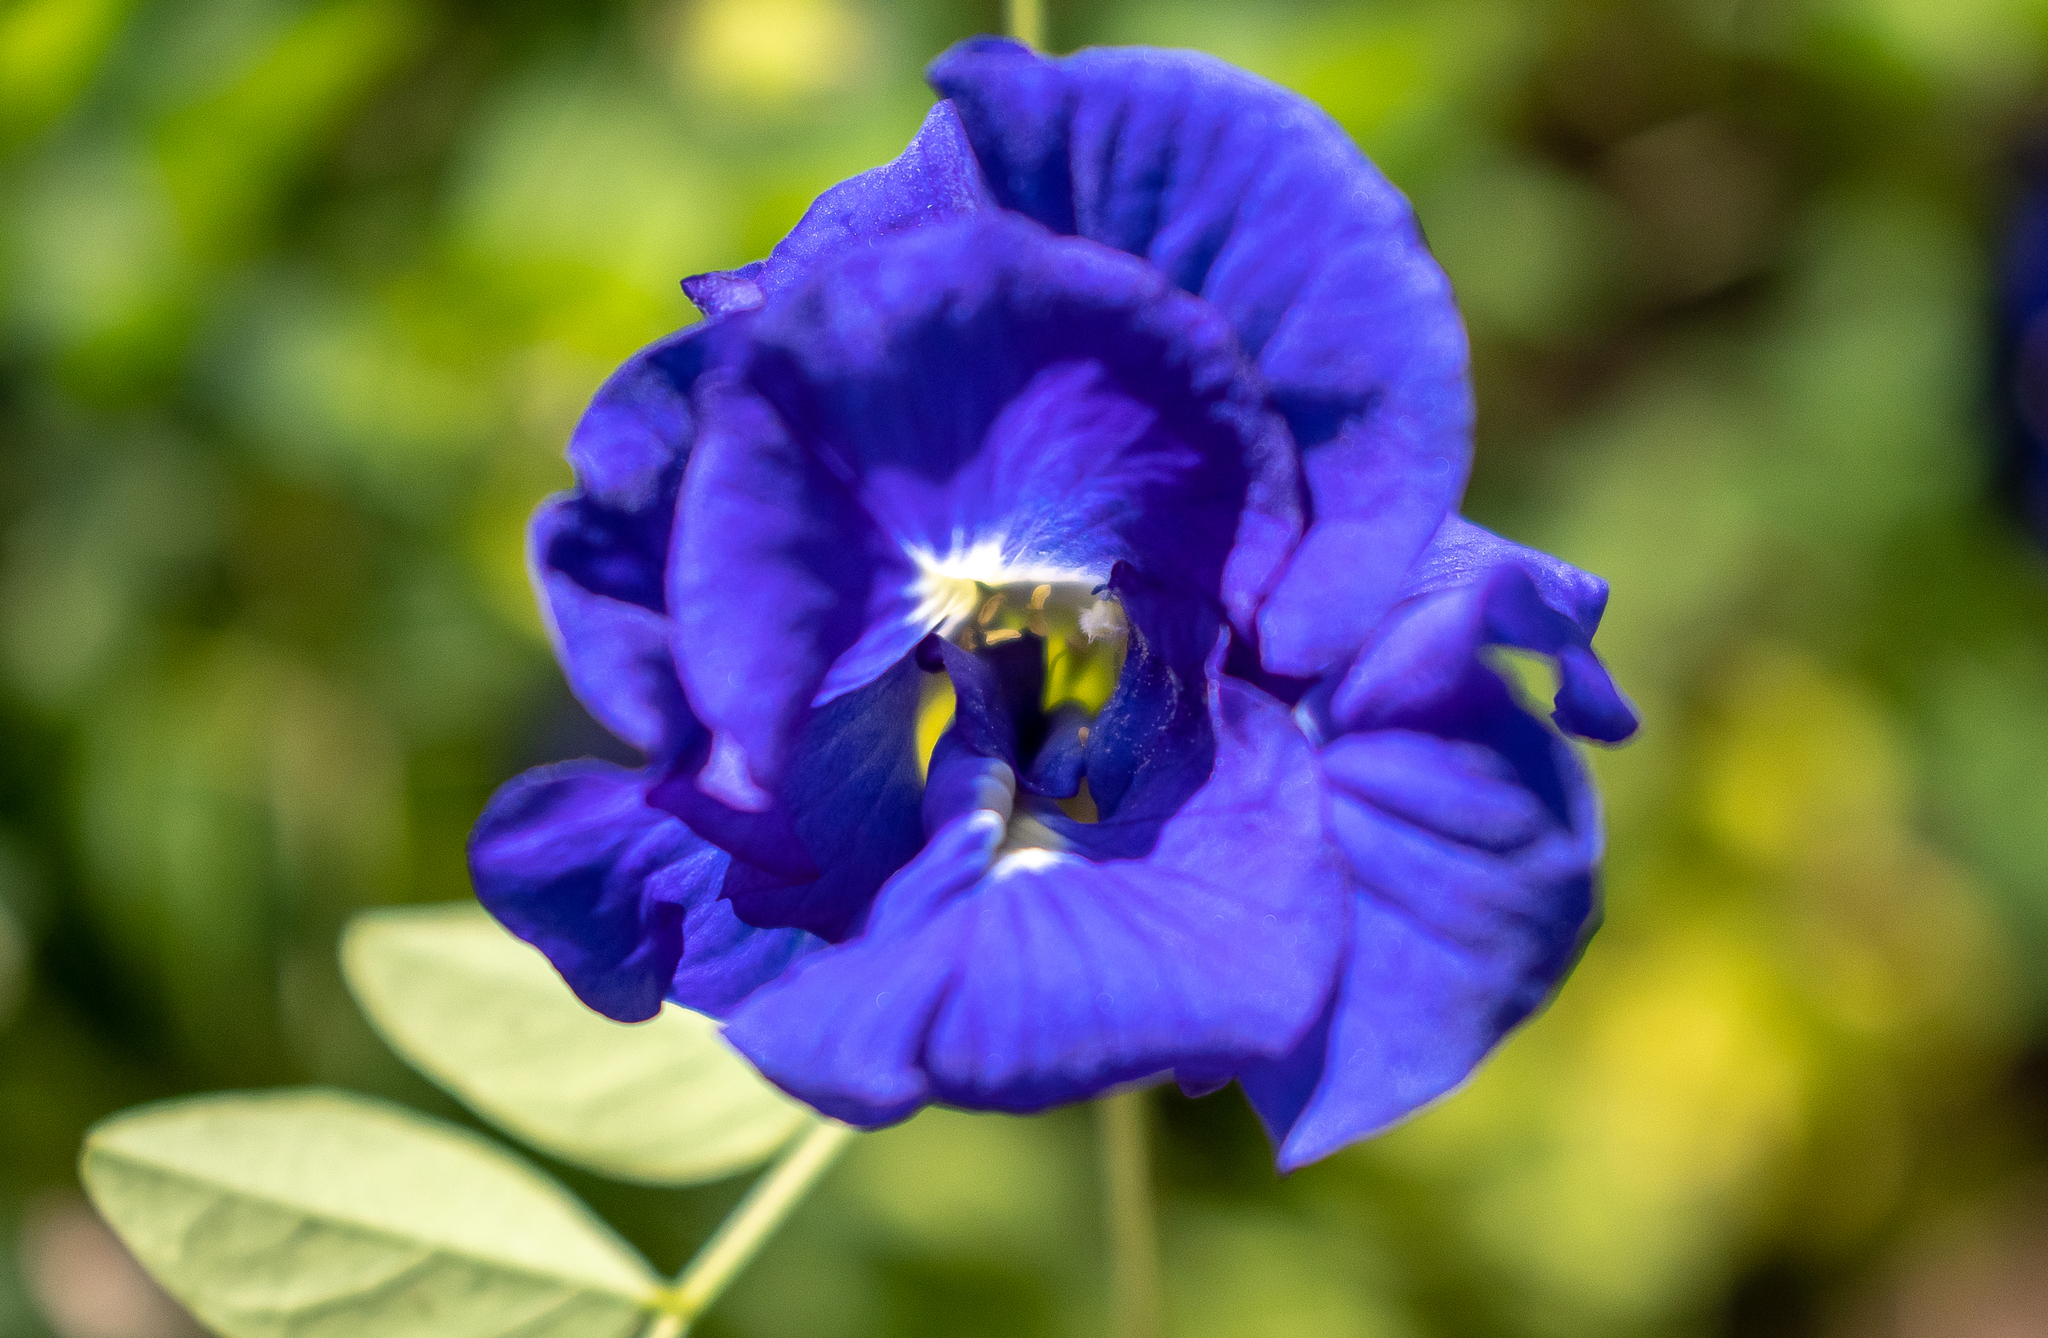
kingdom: Plantae
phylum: Tracheophyta
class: Magnoliopsida
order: Fabales
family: Fabaceae
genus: Clitoria
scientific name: Clitoria ternatea
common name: Asian pigeonwings
